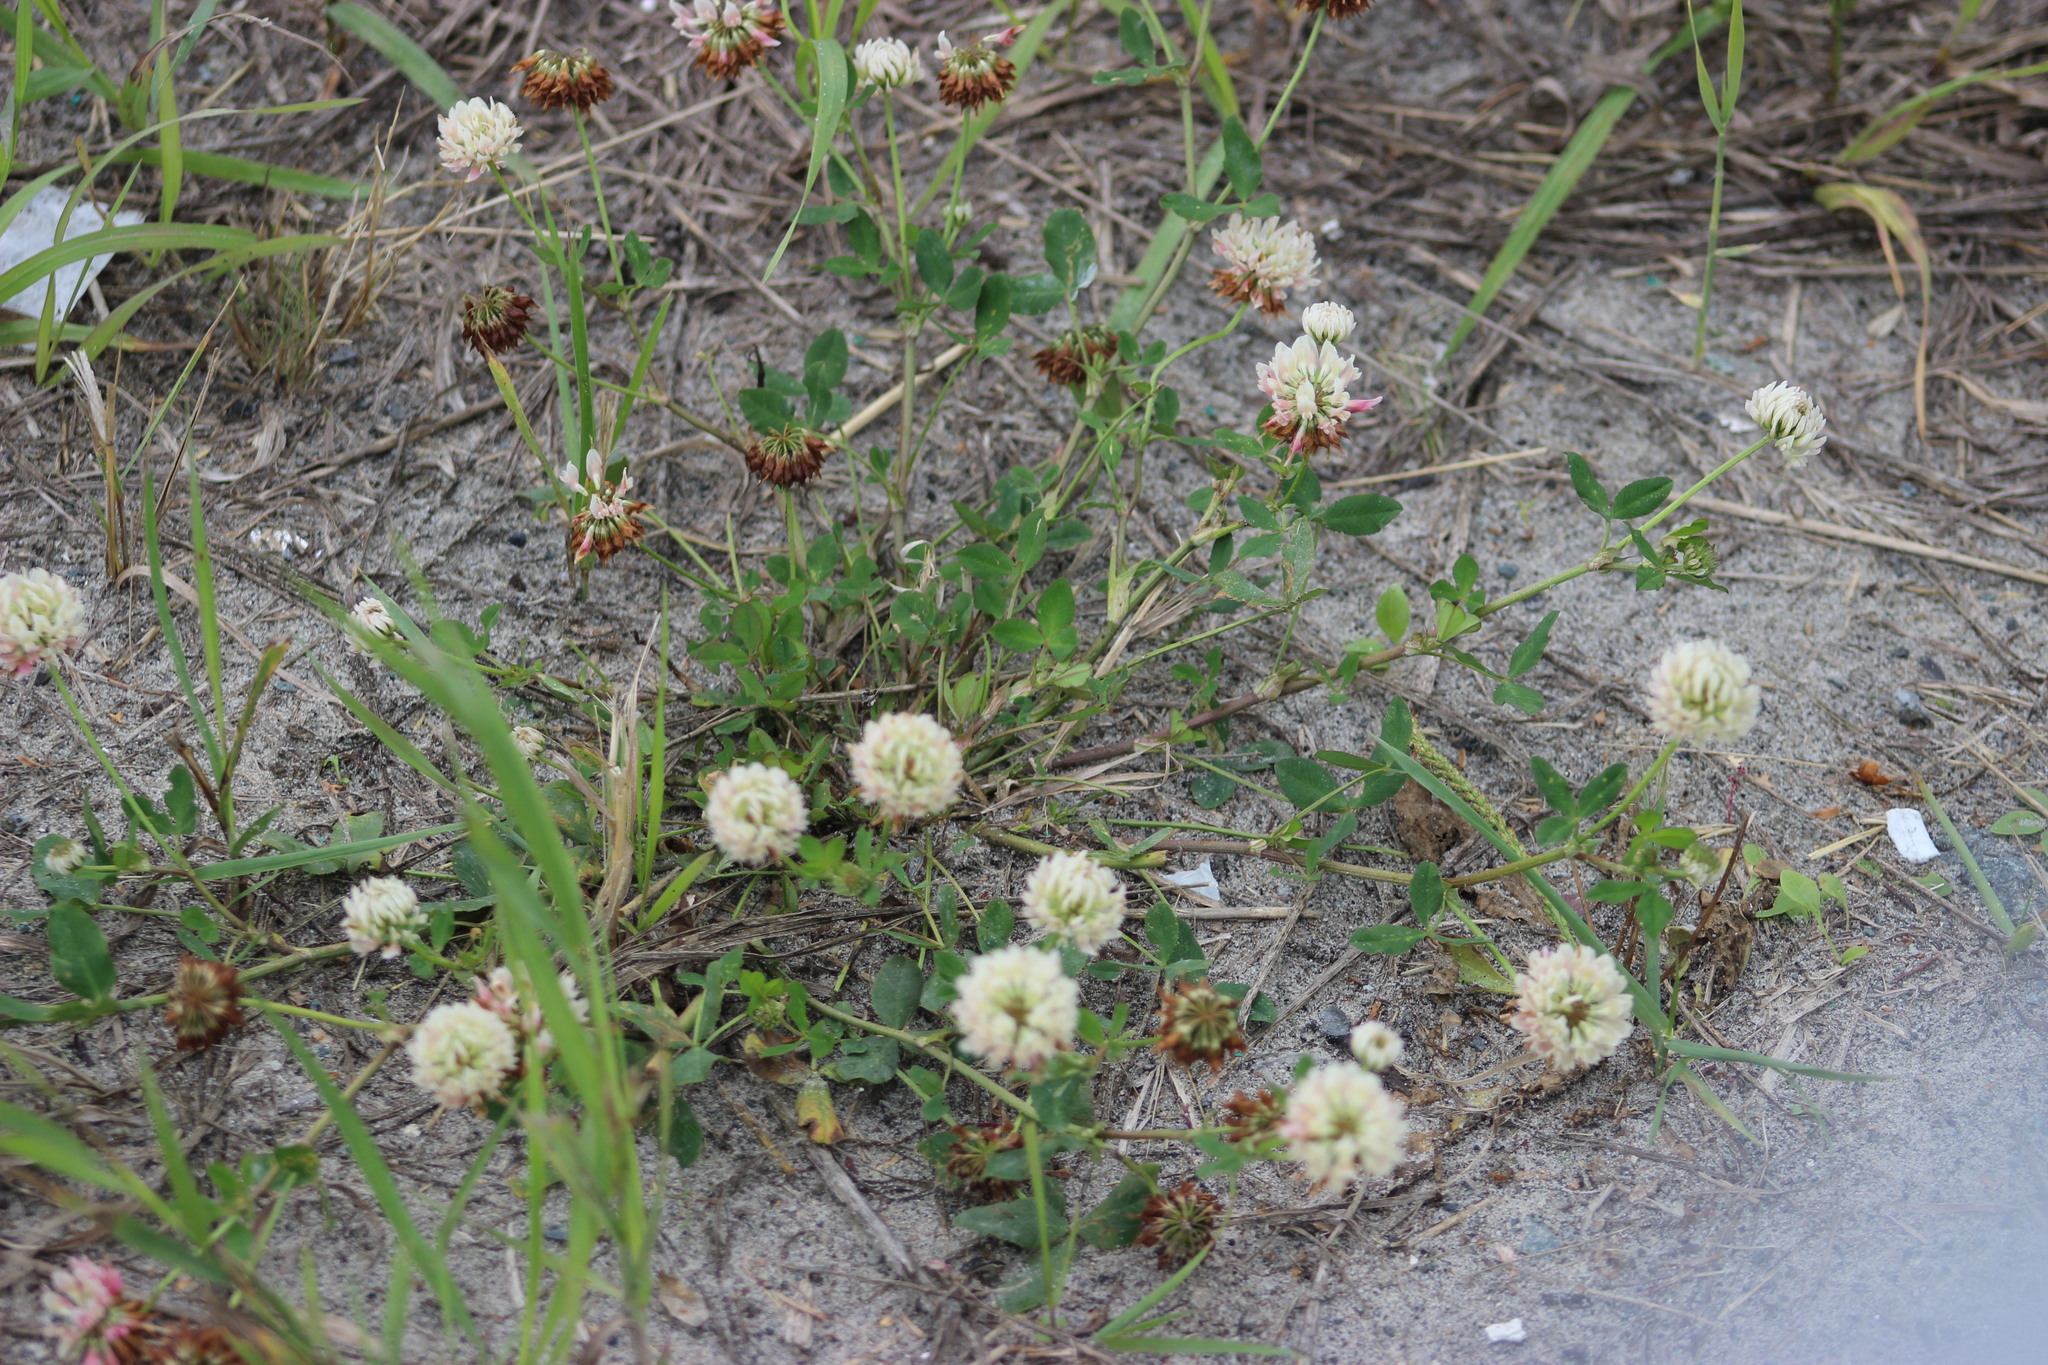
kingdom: Plantae
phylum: Tracheophyta
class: Magnoliopsida
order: Fabales
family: Fabaceae
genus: Trifolium
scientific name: Trifolium hybridum
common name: Alsike clover
